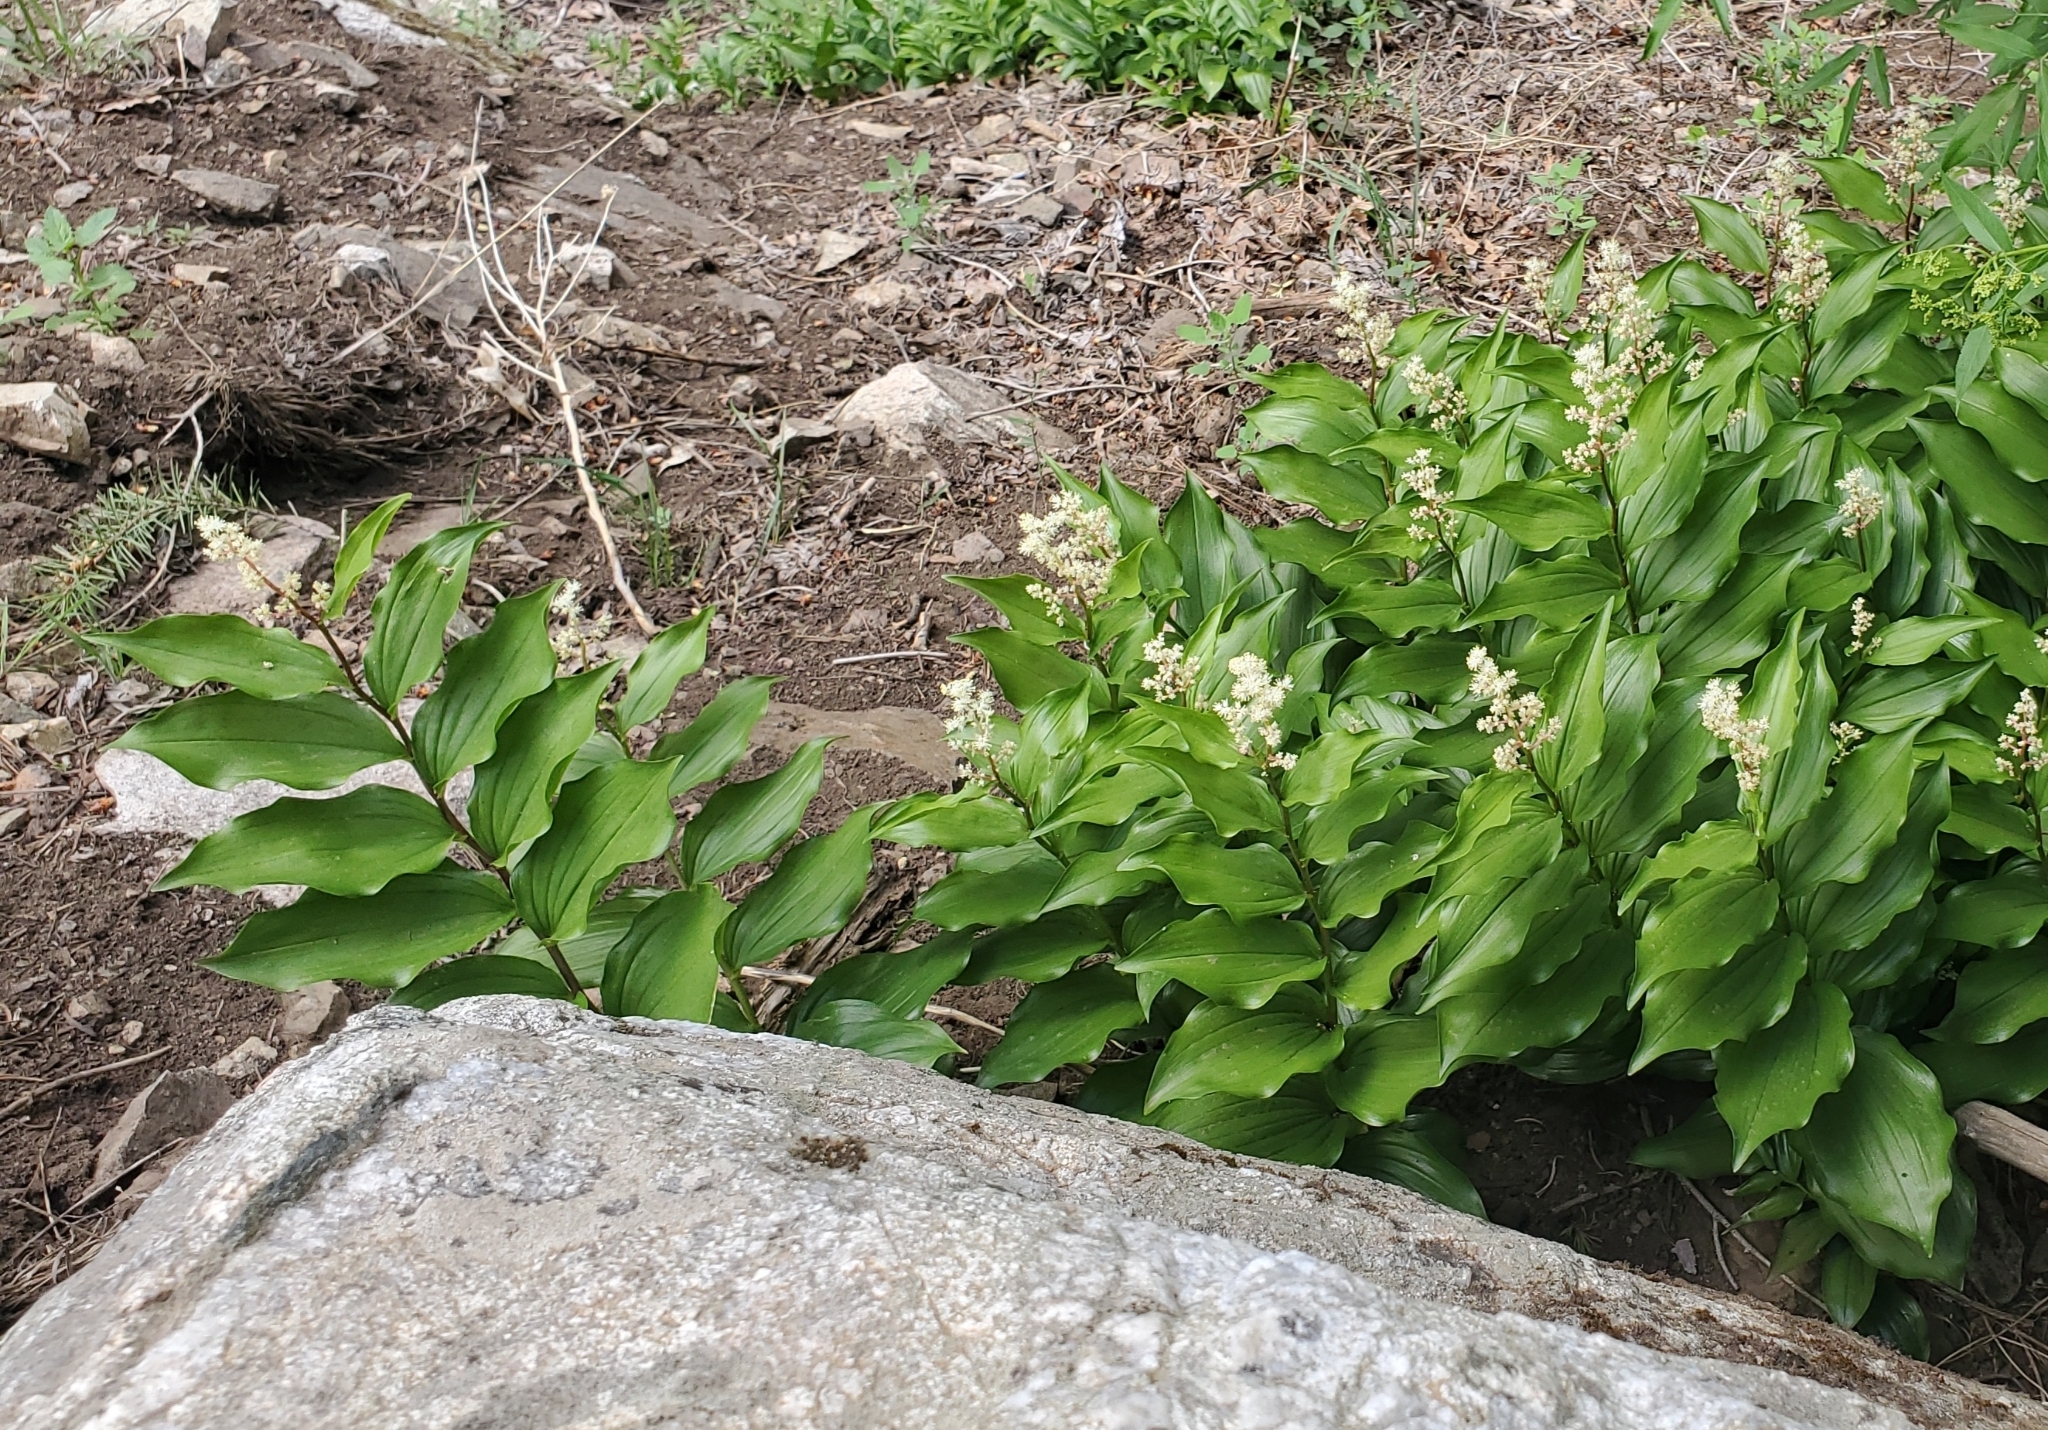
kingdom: Plantae
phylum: Tracheophyta
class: Liliopsida
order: Asparagales
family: Asparagaceae
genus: Maianthemum
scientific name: Maianthemum racemosum
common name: False spikenard
